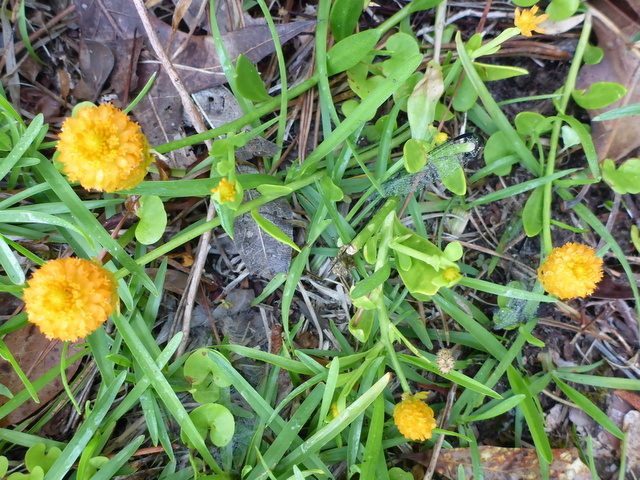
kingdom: Plantae
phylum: Tracheophyta
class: Magnoliopsida
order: Fabales
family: Polygalaceae
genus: Polygala
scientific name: Polygala lutea
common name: Orange milkwort
